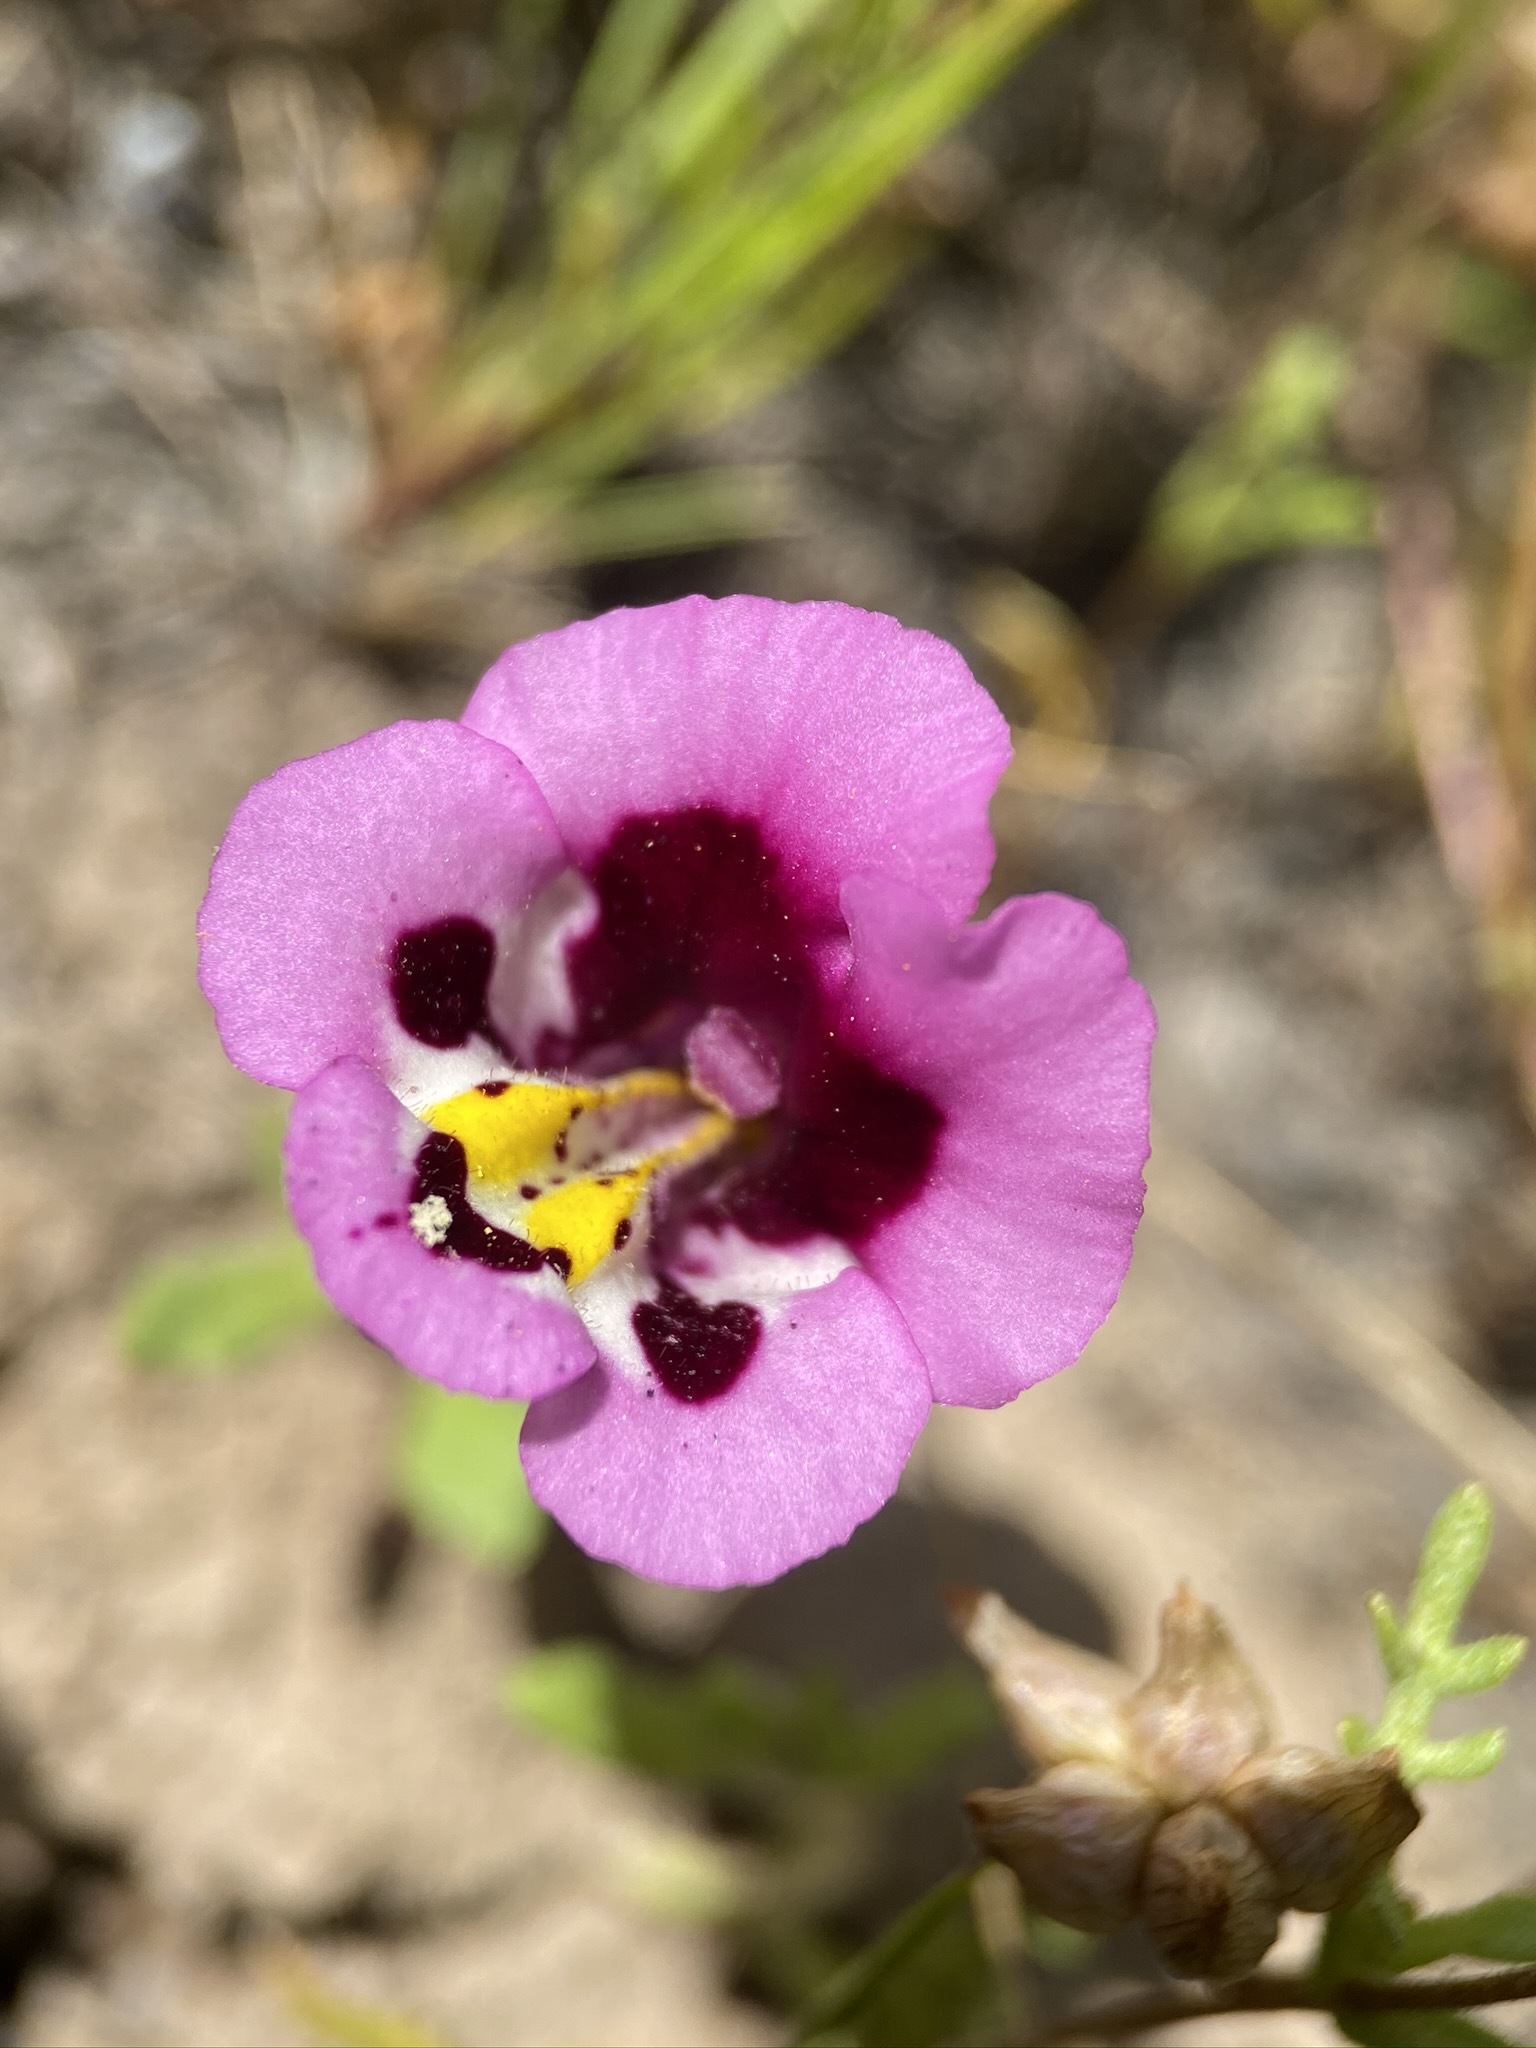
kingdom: Plantae
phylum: Tracheophyta
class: Magnoliopsida
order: Lamiales
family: Phrymaceae
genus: Diplacus
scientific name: Diplacus tricolor
